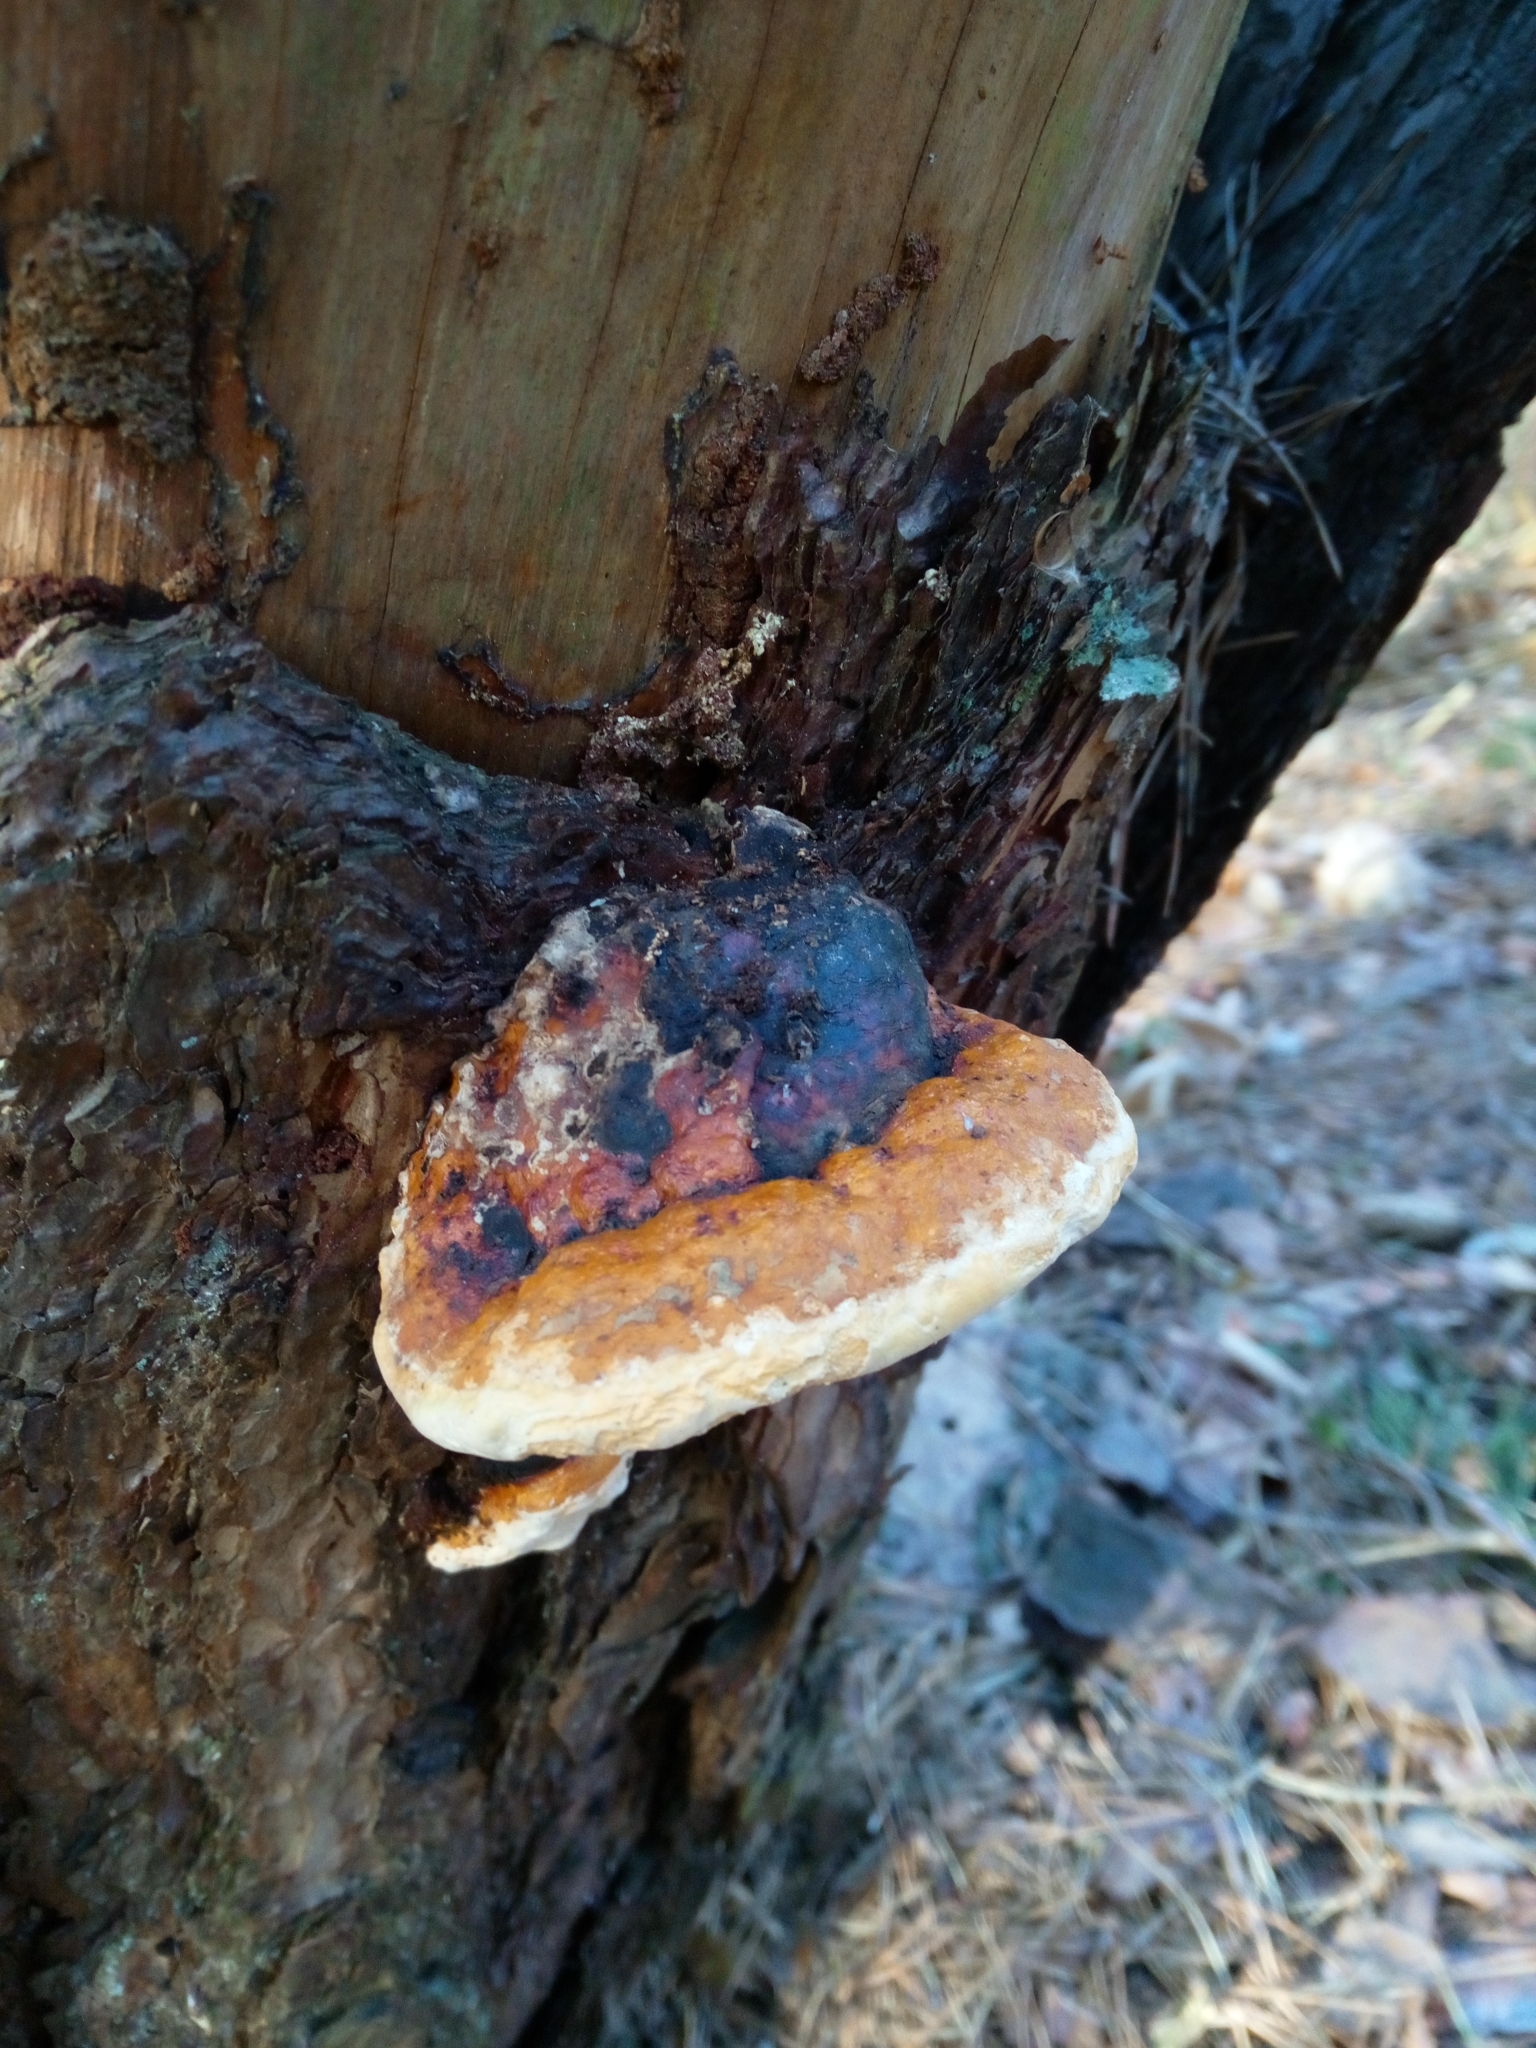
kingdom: Fungi
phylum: Basidiomycota
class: Agaricomycetes
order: Polyporales
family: Fomitopsidaceae
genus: Fomitopsis
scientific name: Fomitopsis pinicola
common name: Red-belted bracket
